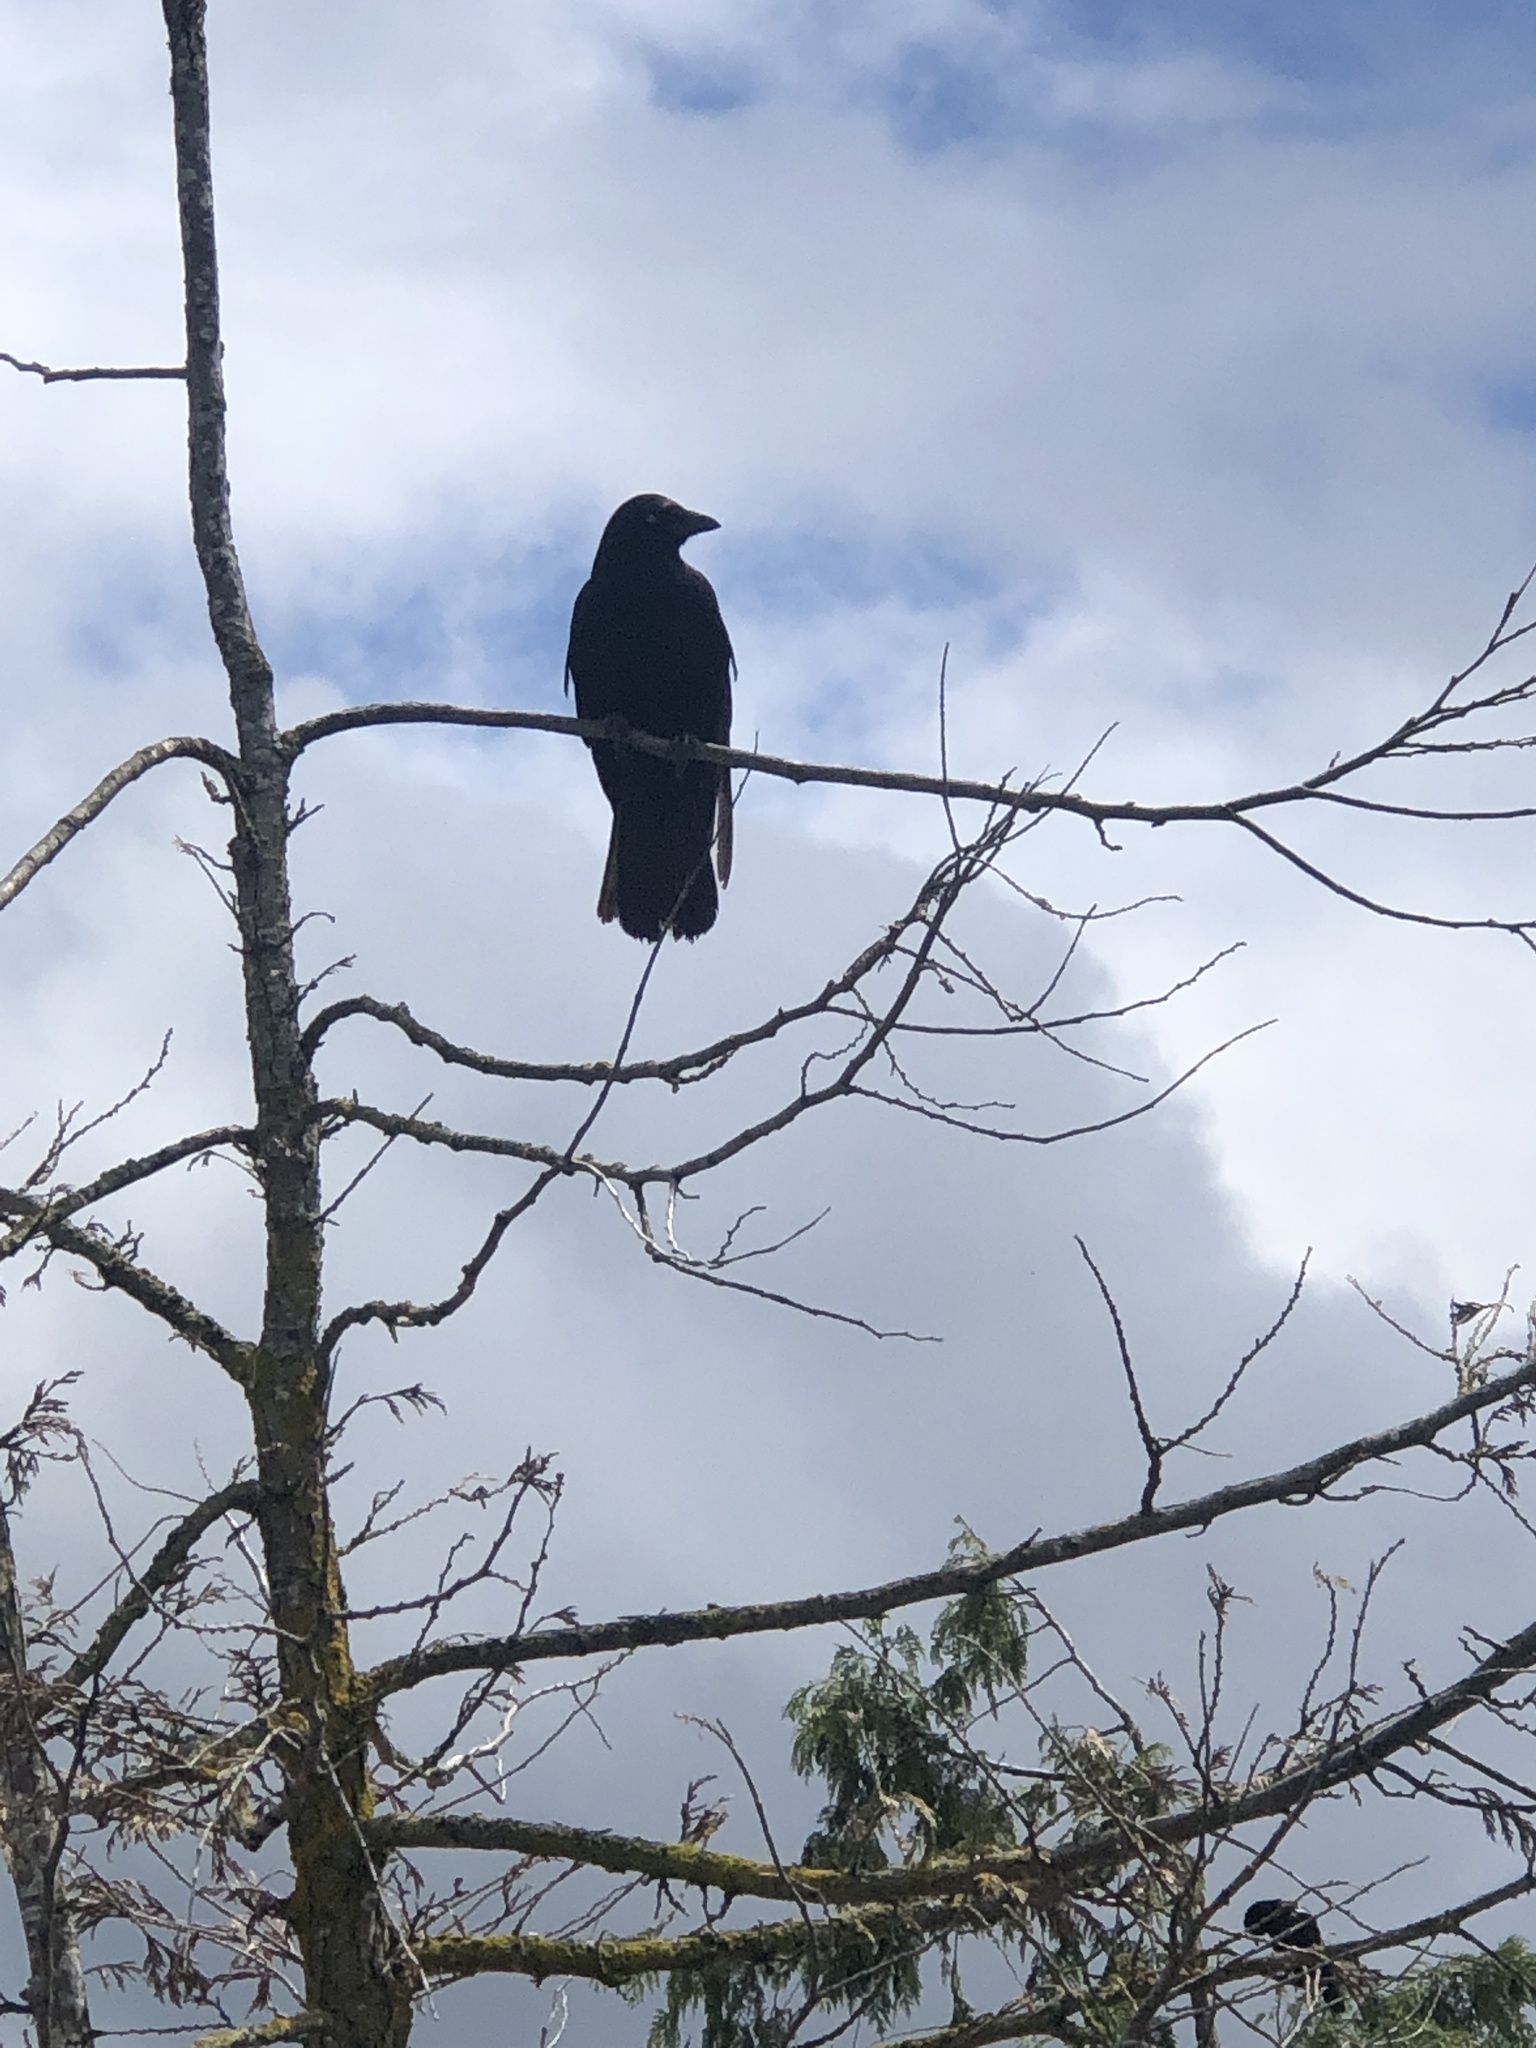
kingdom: Animalia
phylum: Chordata
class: Aves
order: Passeriformes
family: Corvidae
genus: Corvus
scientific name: Corvus brachyrhynchos
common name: American crow
